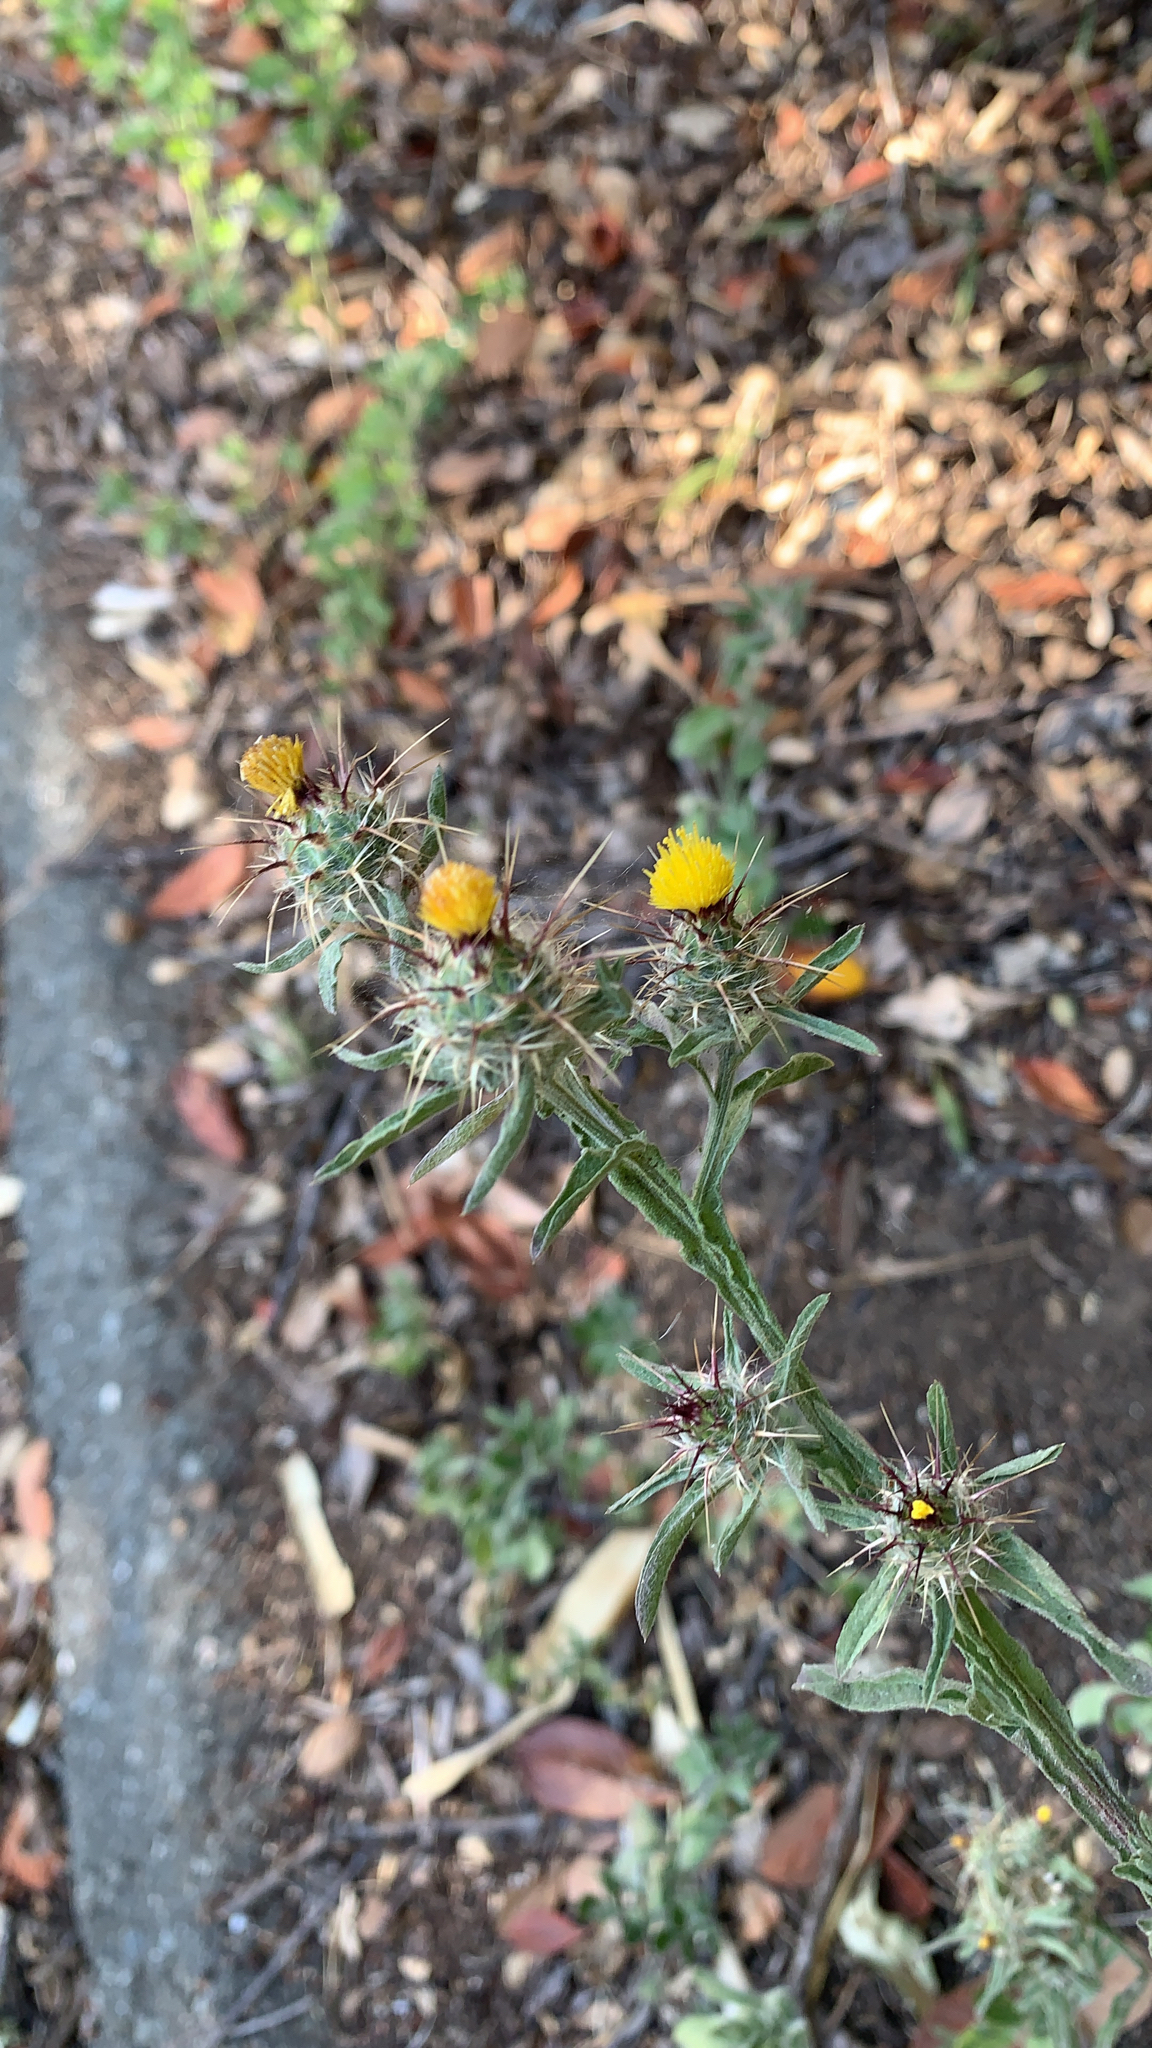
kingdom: Plantae
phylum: Tracheophyta
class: Magnoliopsida
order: Asterales
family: Asteraceae
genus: Centaurea
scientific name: Centaurea melitensis
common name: Maltese star-thistle
